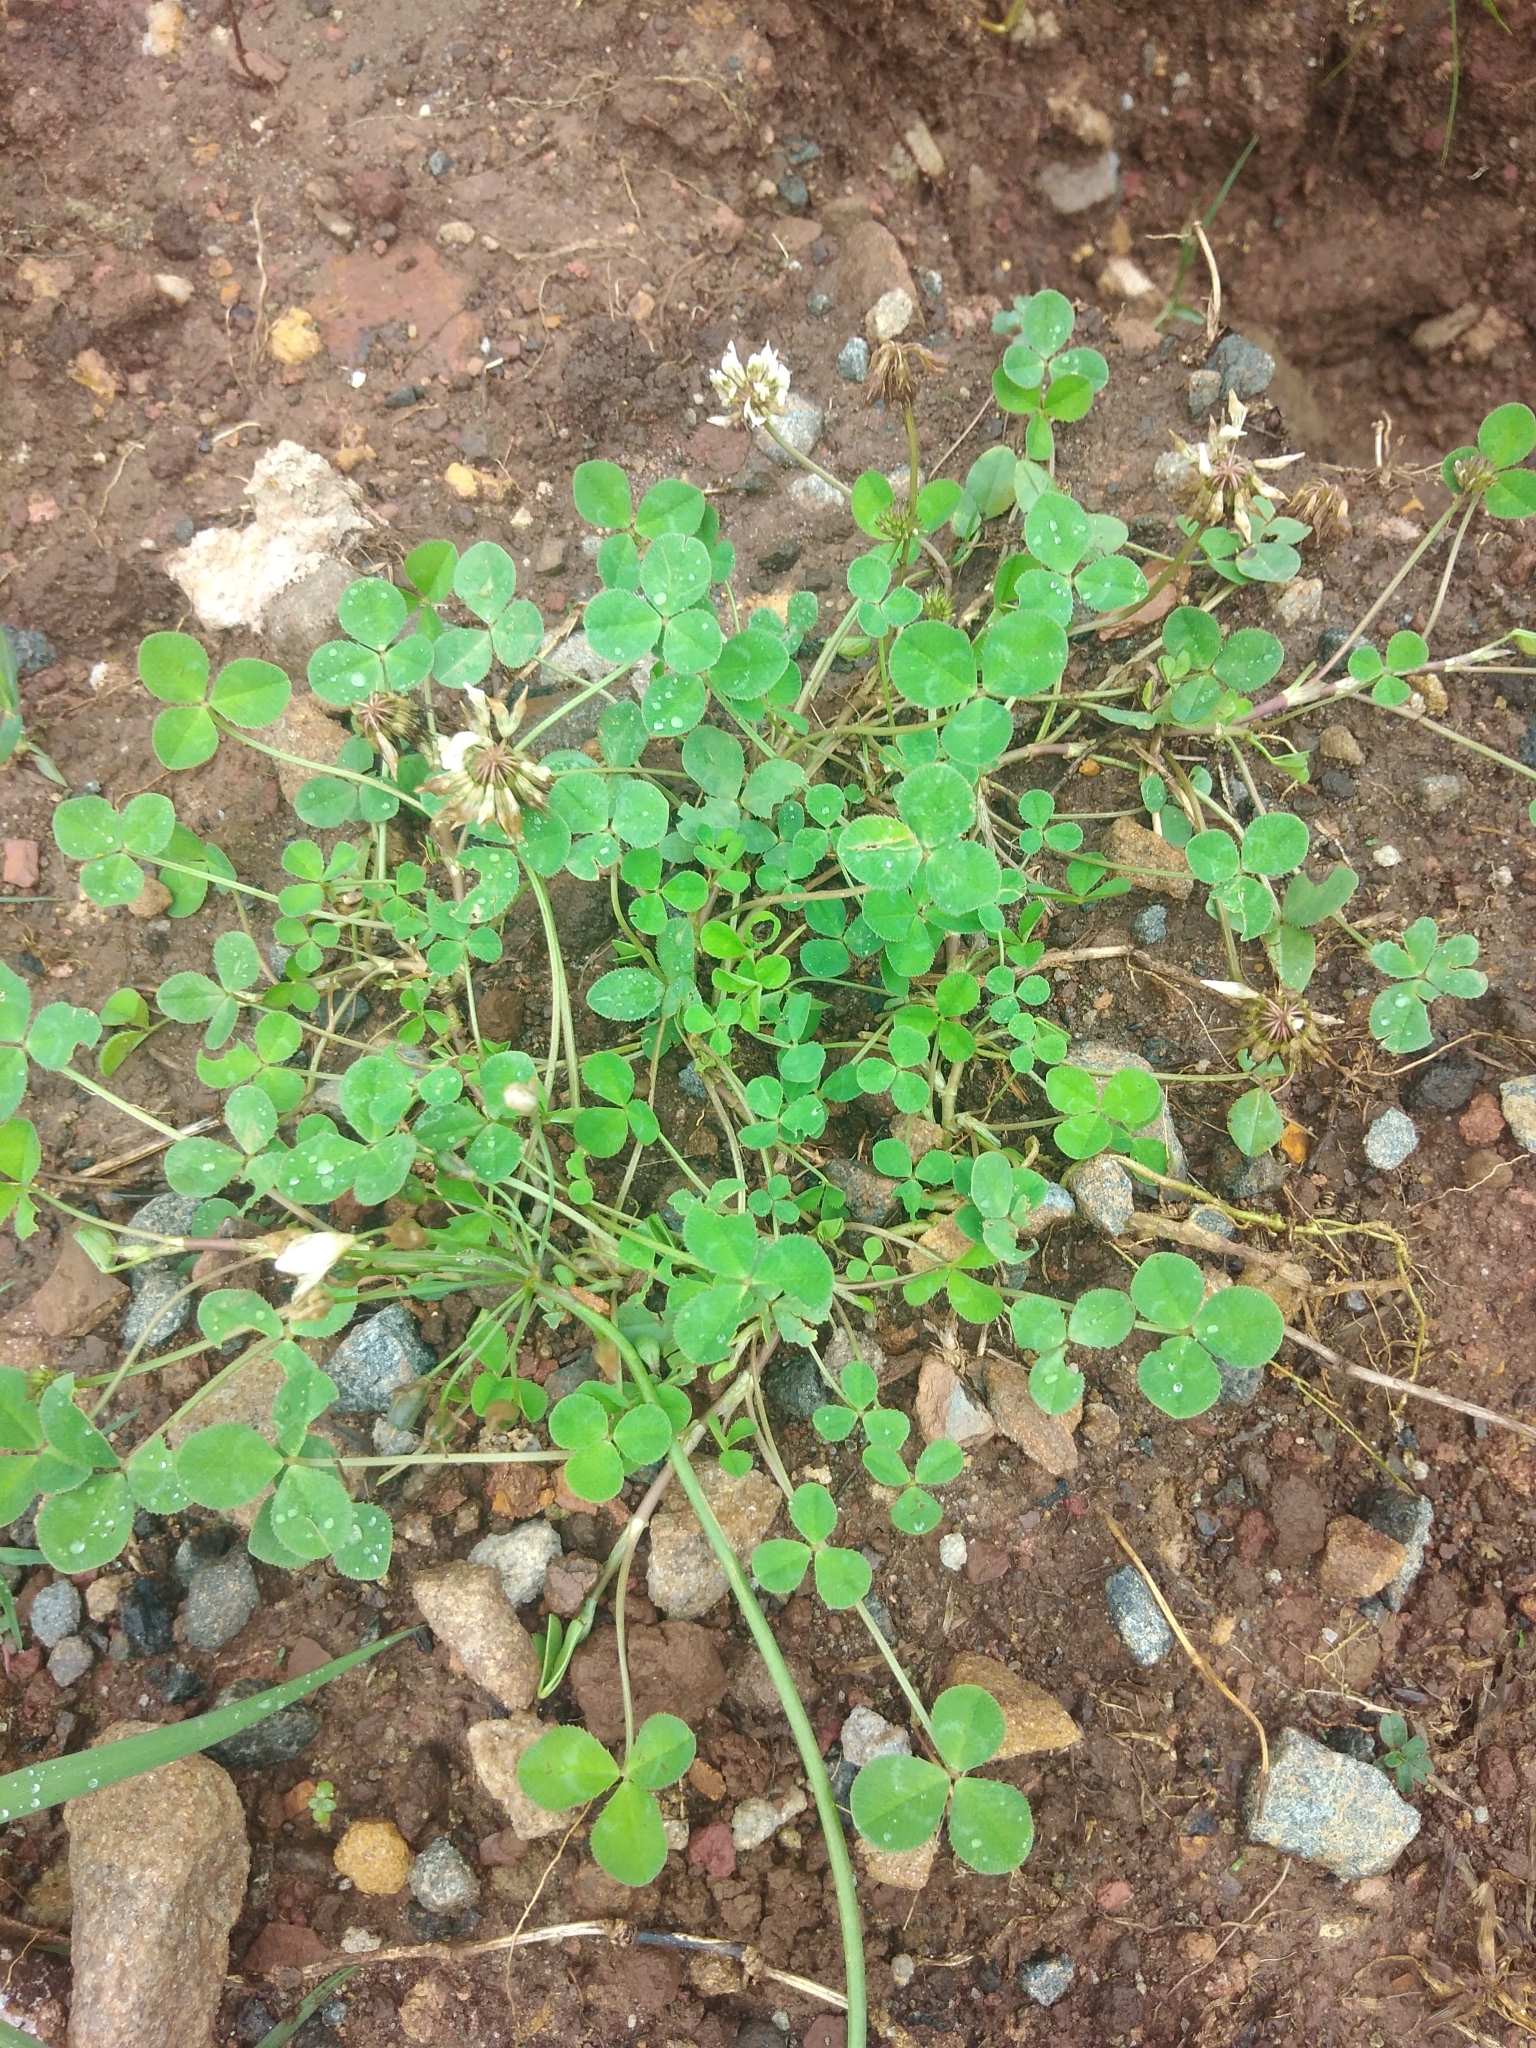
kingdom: Plantae
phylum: Tracheophyta
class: Magnoliopsida
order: Fabales
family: Fabaceae
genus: Trifolium
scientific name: Trifolium repens
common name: White clover
